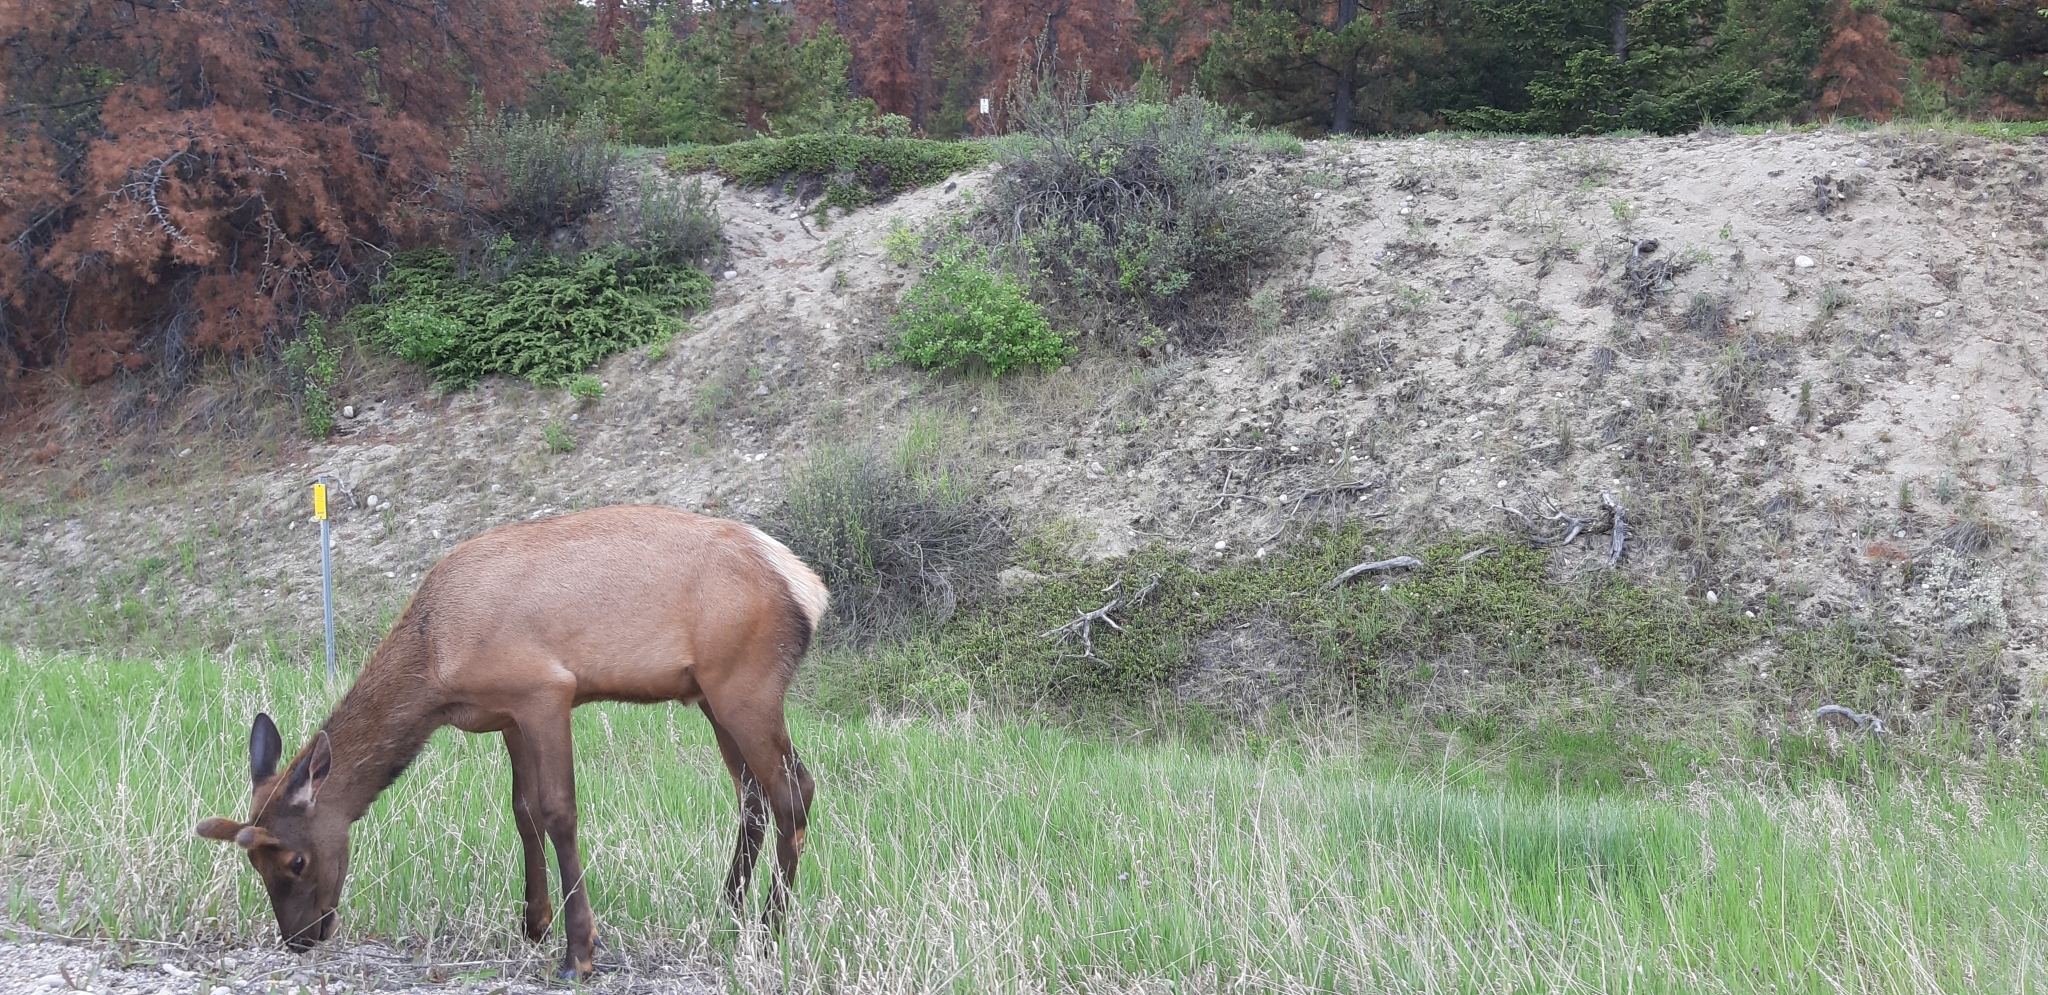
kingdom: Animalia
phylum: Chordata
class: Mammalia
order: Artiodactyla
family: Cervidae
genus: Cervus
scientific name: Cervus elaphus
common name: Red deer
